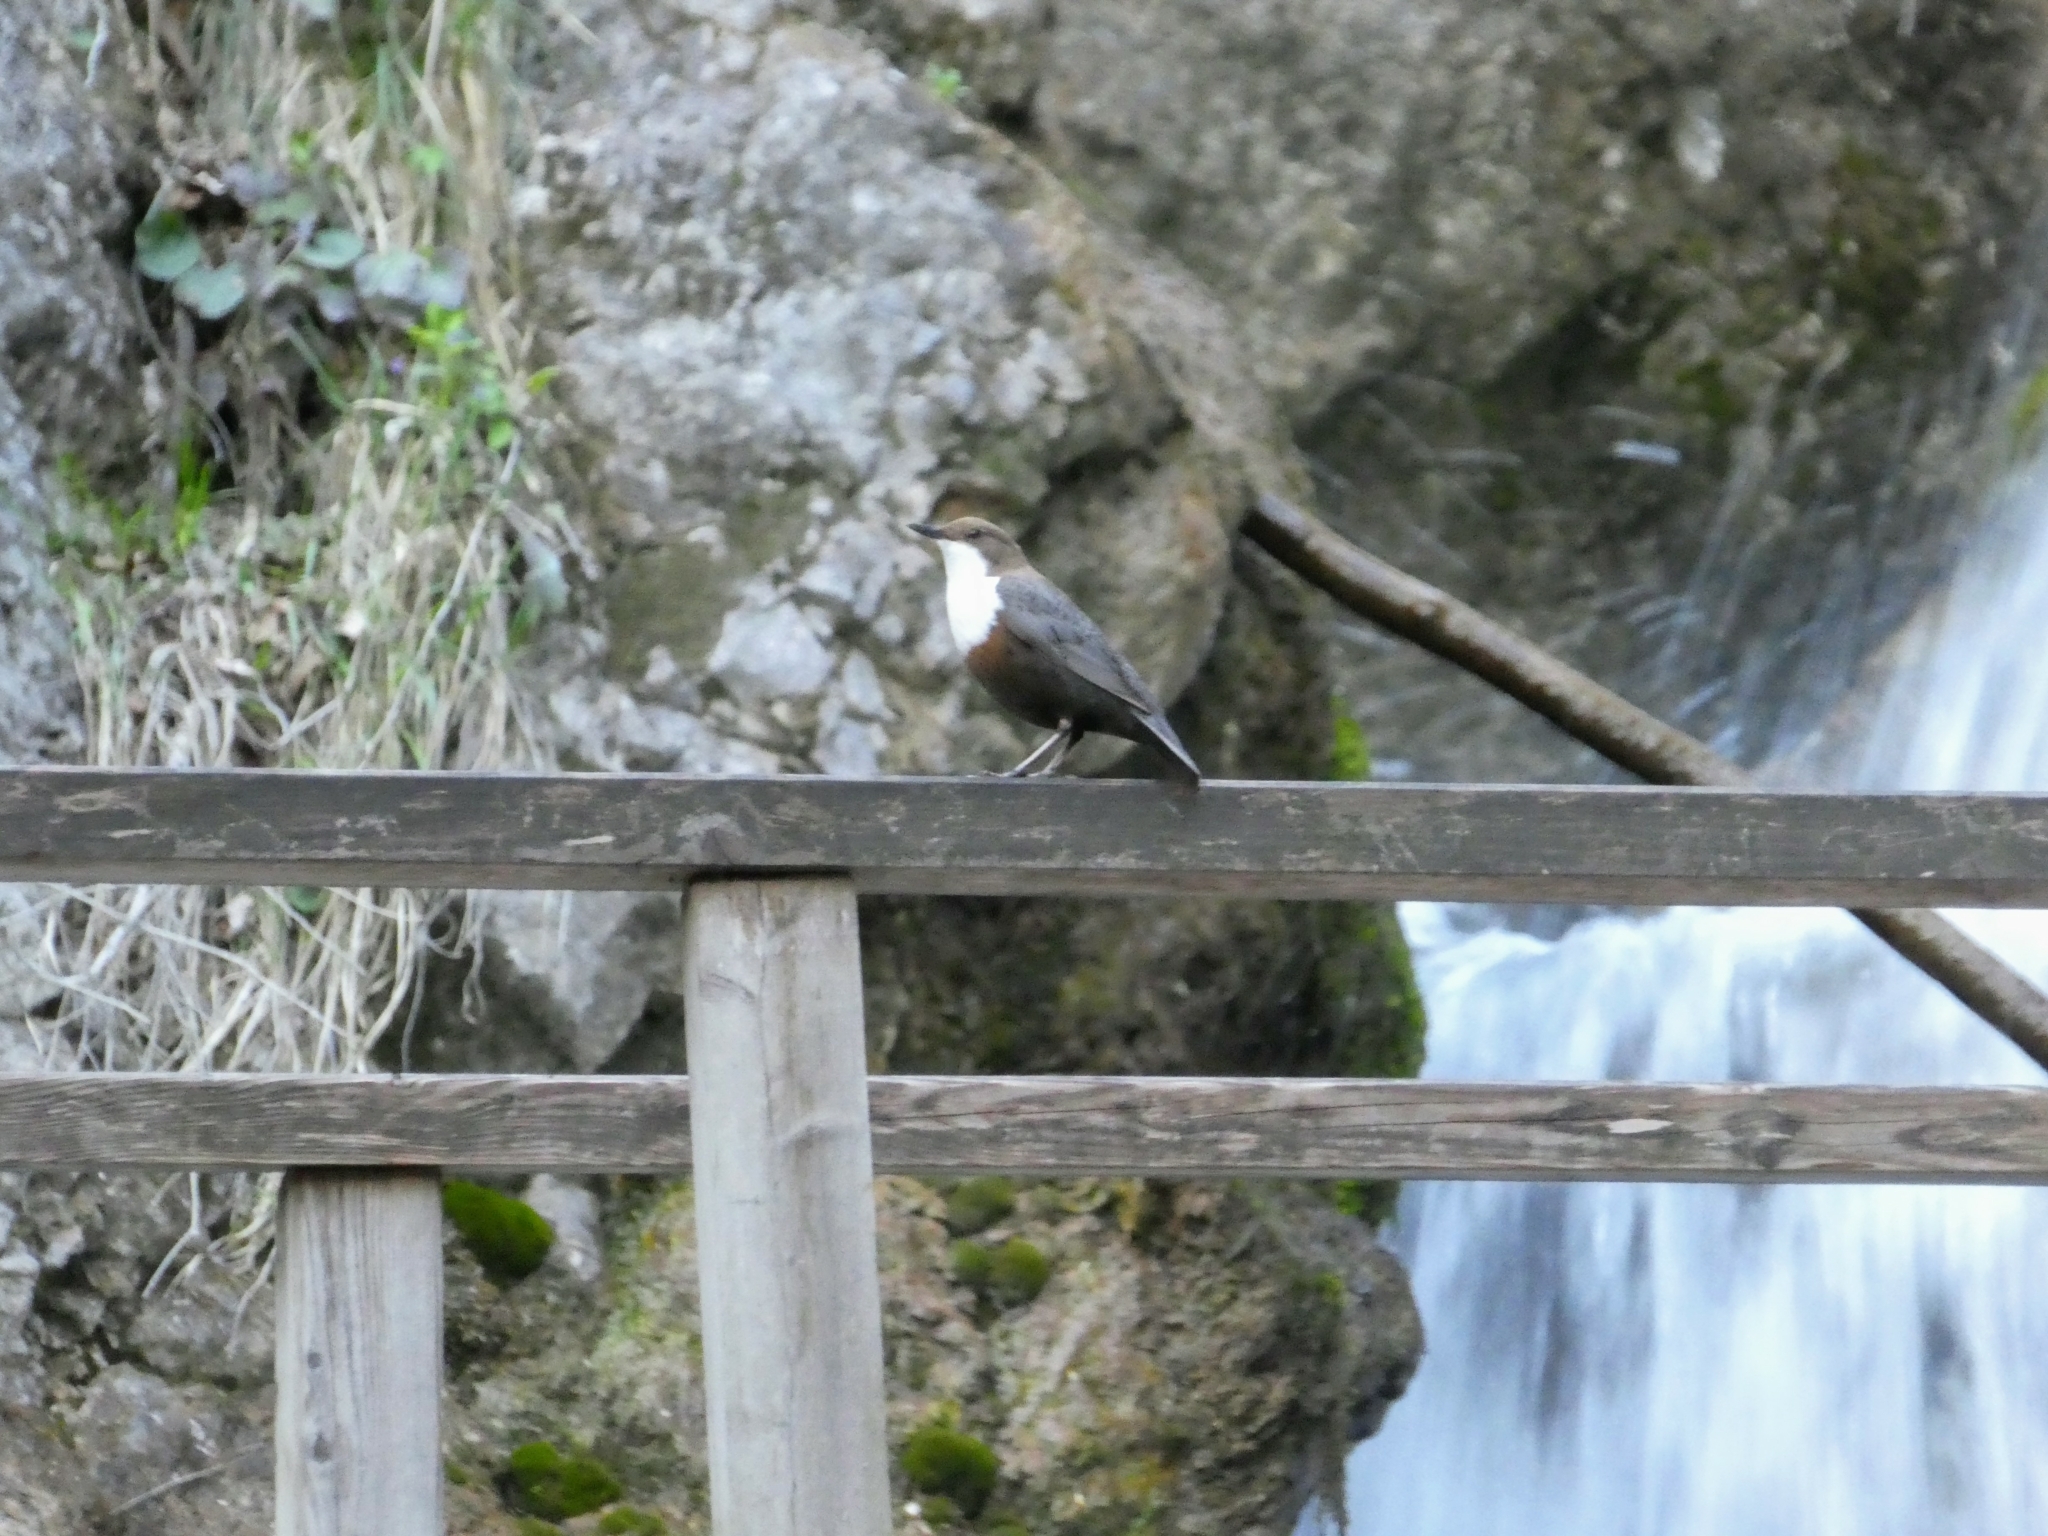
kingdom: Animalia
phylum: Chordata
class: Aves
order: Passeriformes
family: Cinclidae
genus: Cinclus
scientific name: Cinclus cinclus
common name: White-throated dipper
